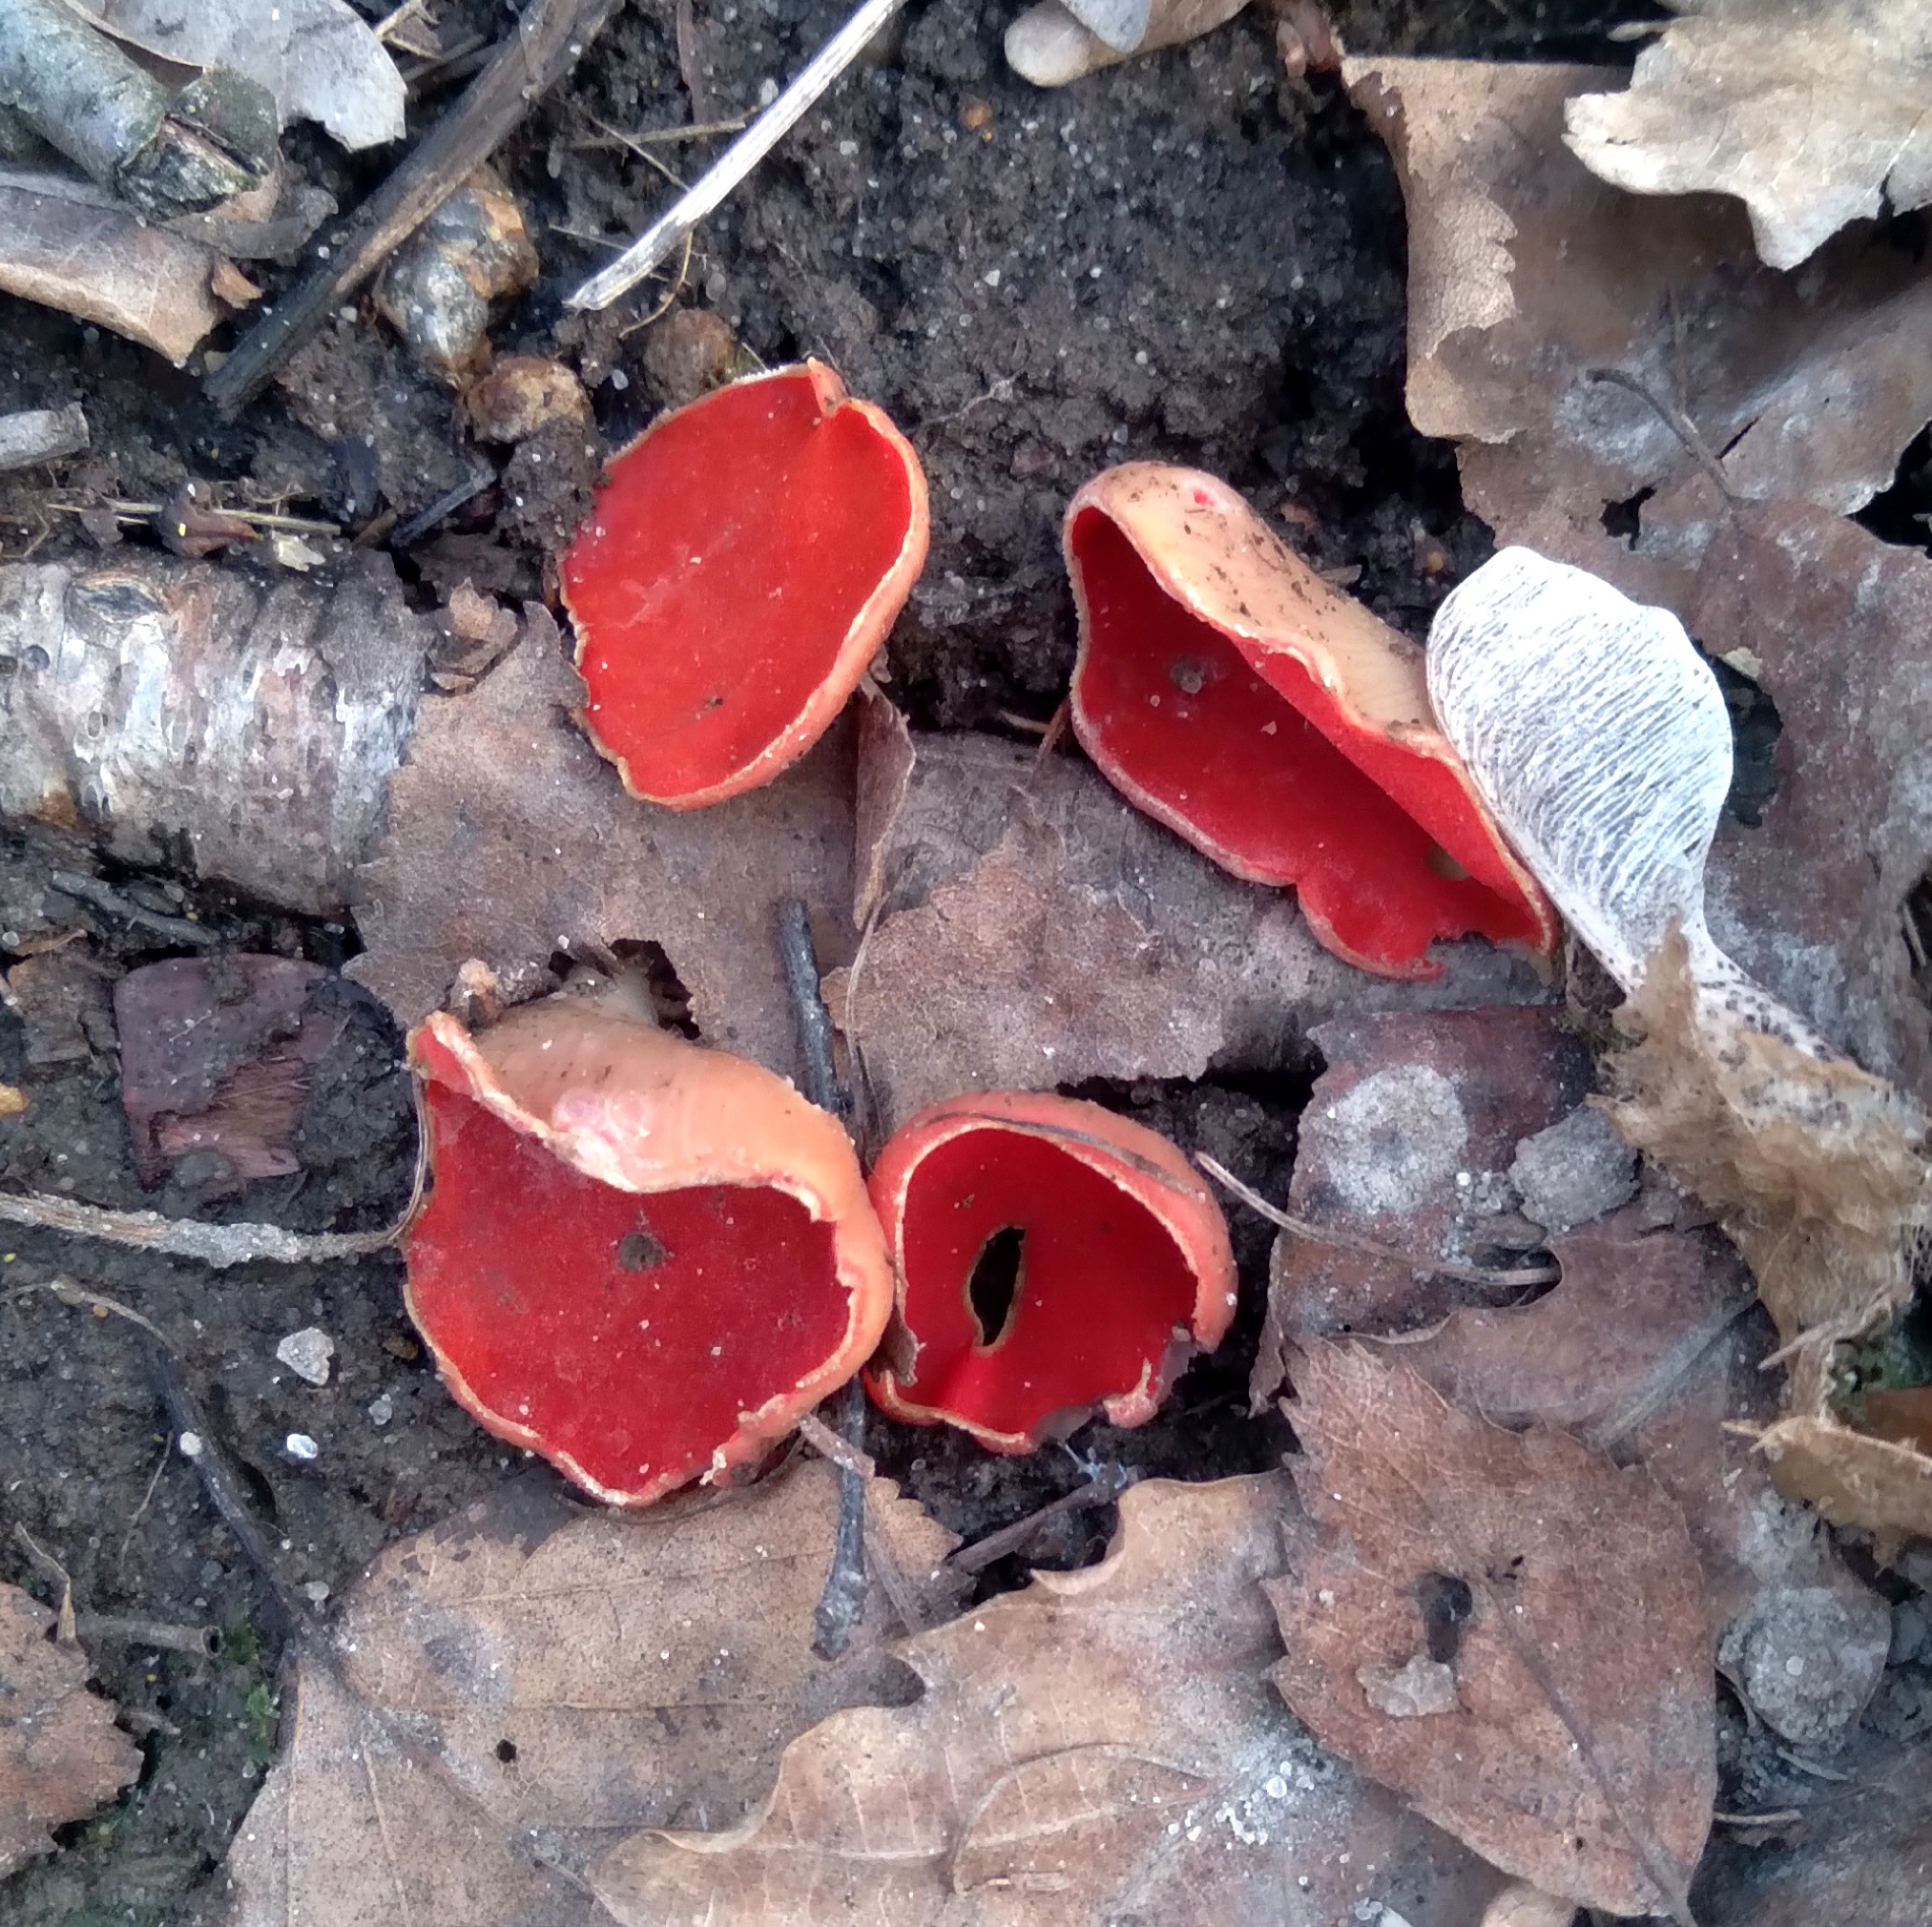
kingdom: Fungi
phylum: Ascomycota
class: Pezizomycetes
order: Pezizales
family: Sarcoscyphaceae
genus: Sarcoscypha
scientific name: Sarcoscypha austriaca
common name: Scarlet elfcup
